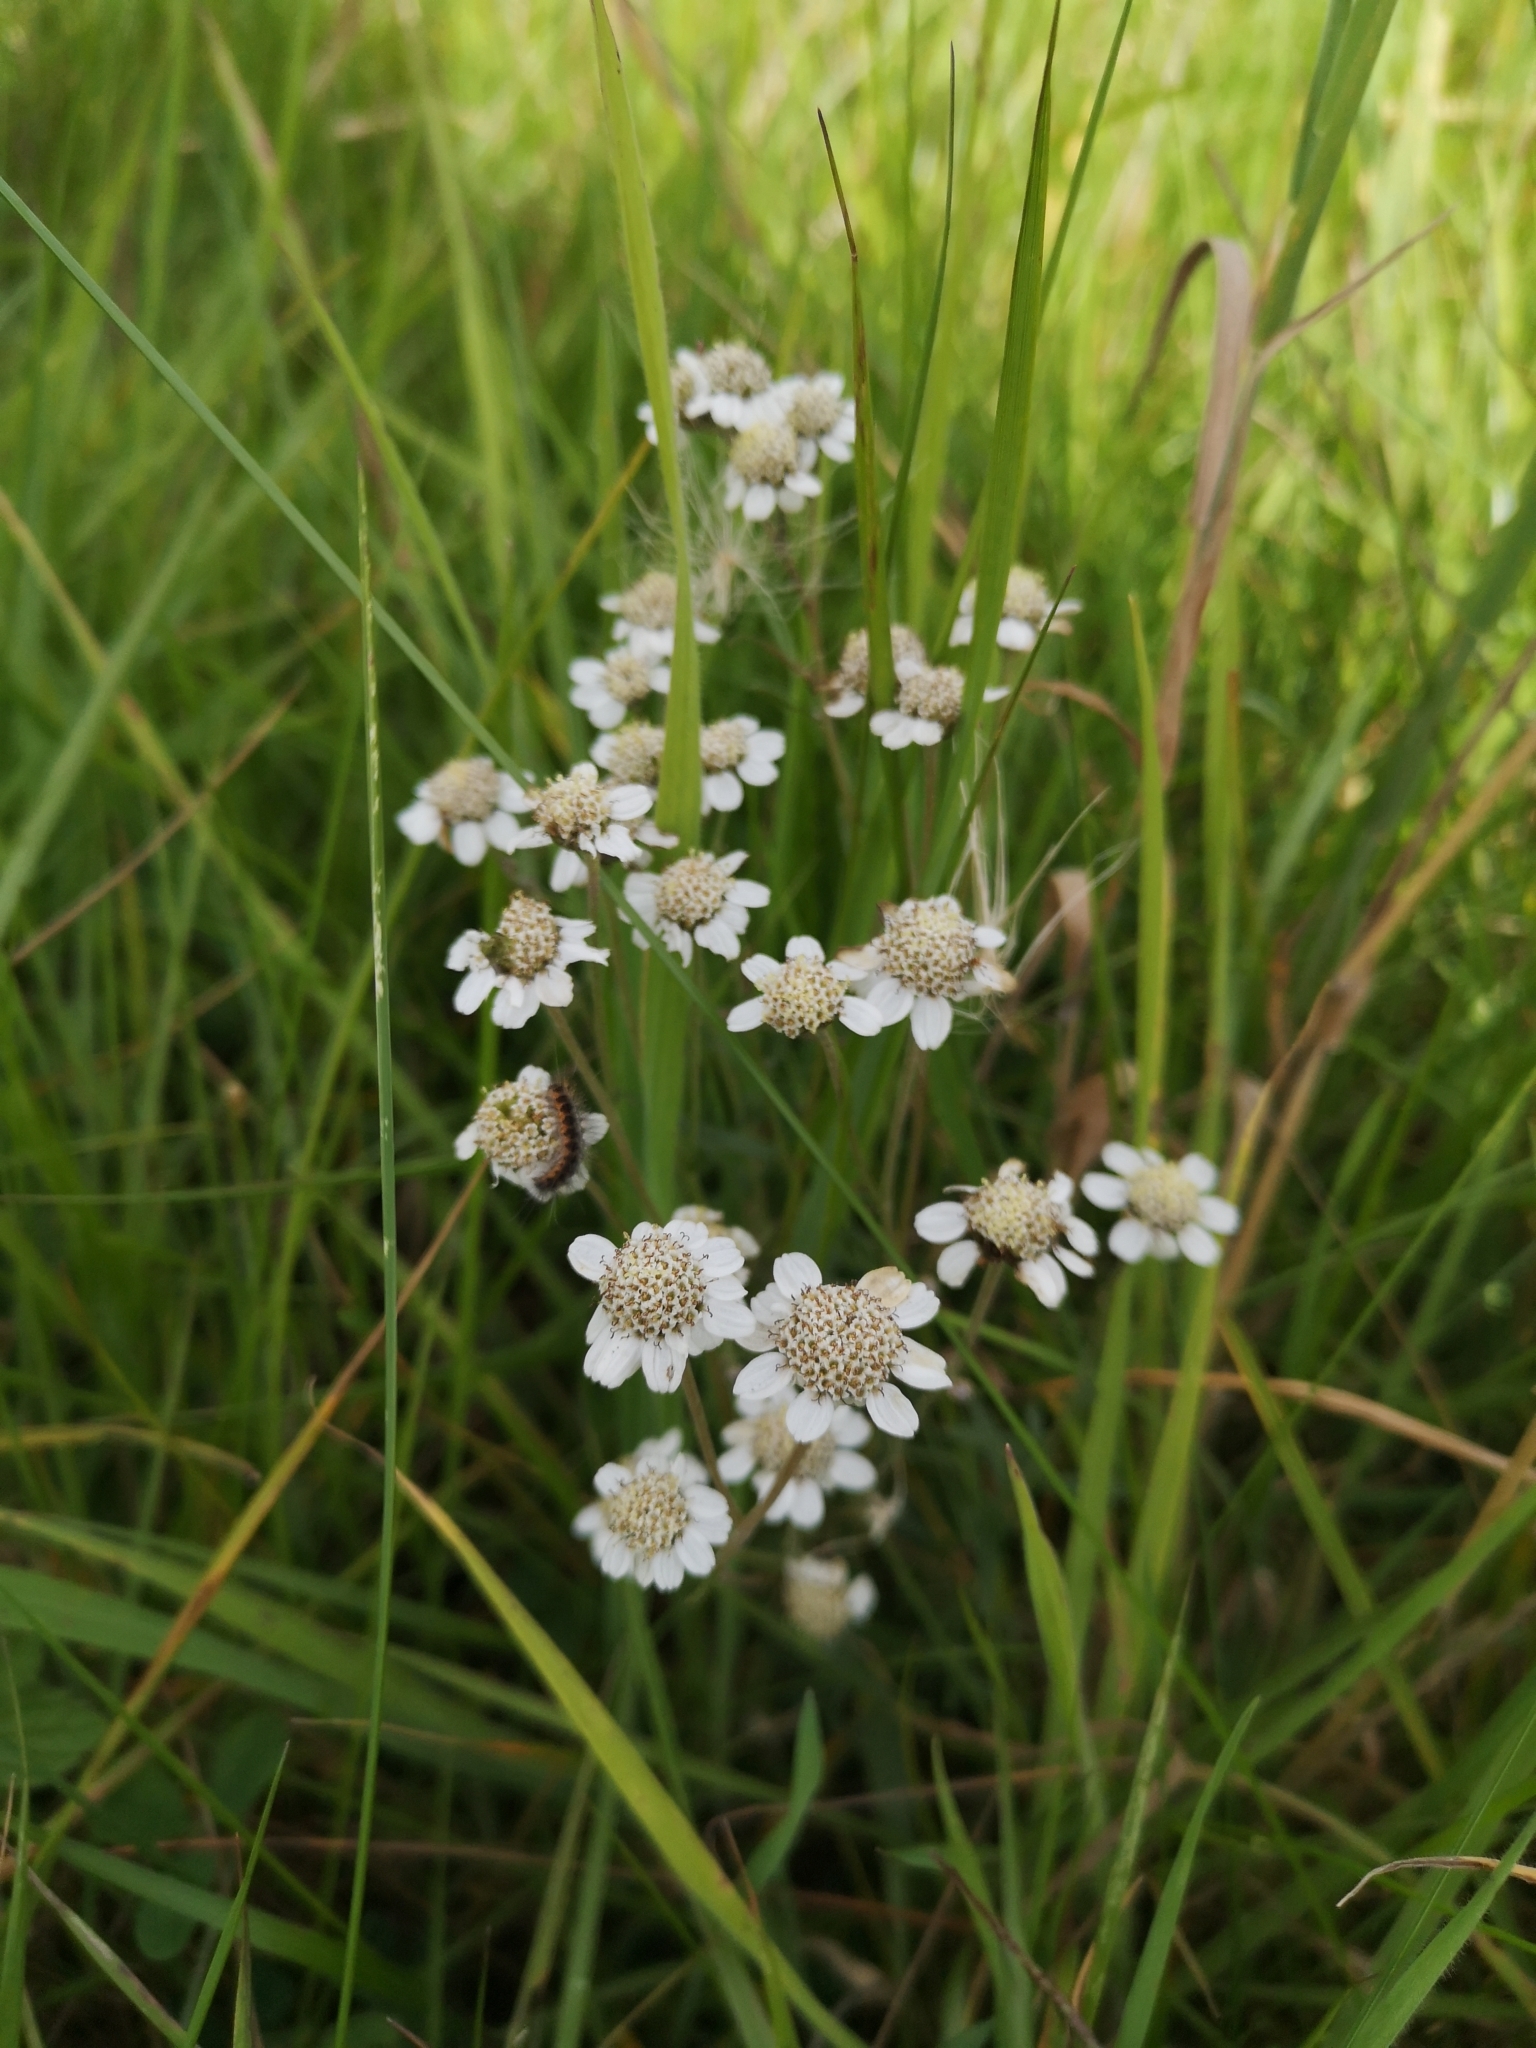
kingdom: Plantae
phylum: Tracheophyta
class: Magnoliopsida
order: Asterales
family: Asteraceae
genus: Achillea
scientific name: Achillea ptarmica
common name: Sneezeweed
